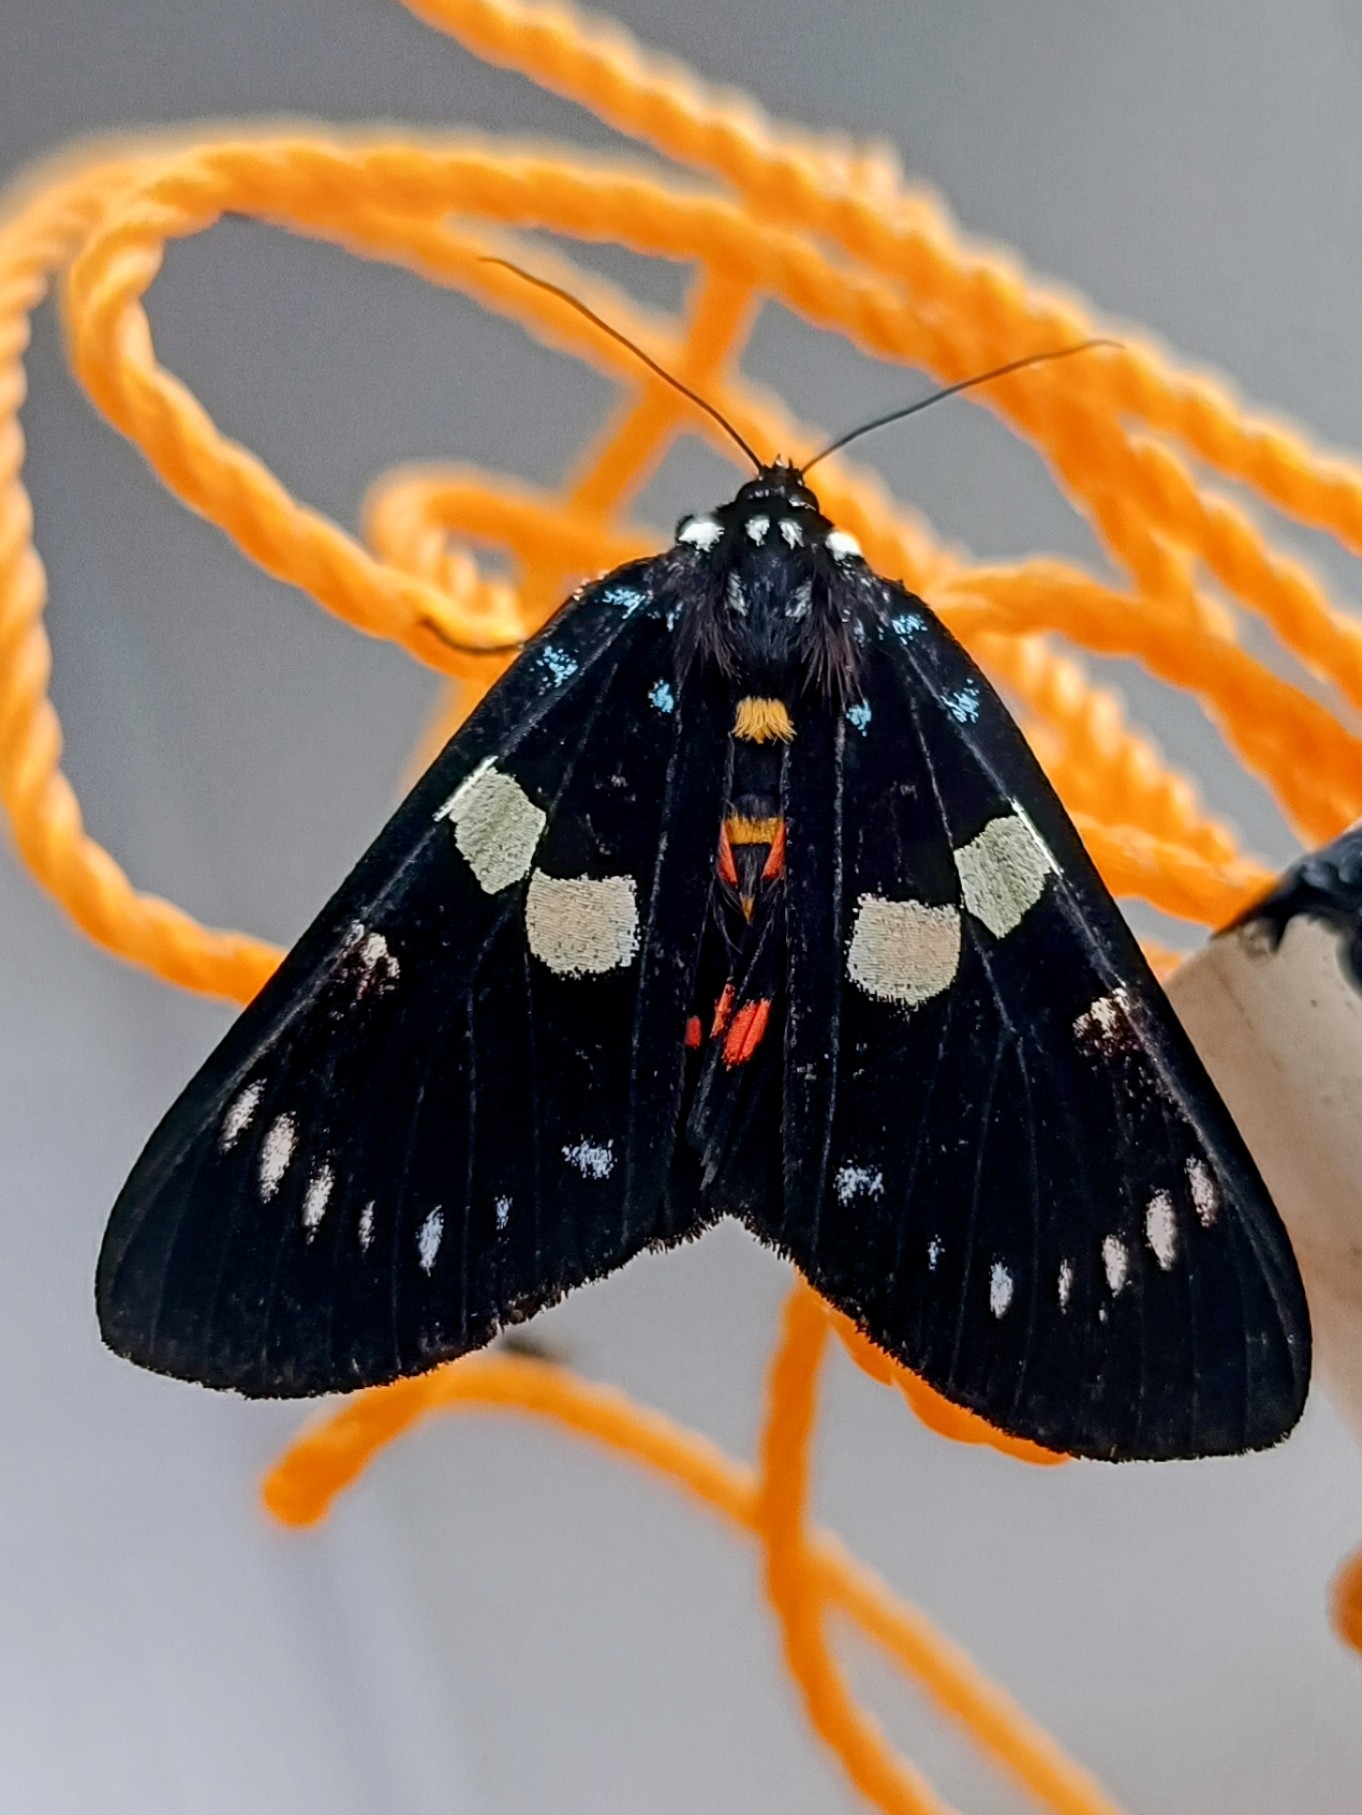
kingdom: Animalia
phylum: Arthropoda
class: Insecta
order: Lepidoptera
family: Noctuidae
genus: Episteme
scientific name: Episteme adulatrix
